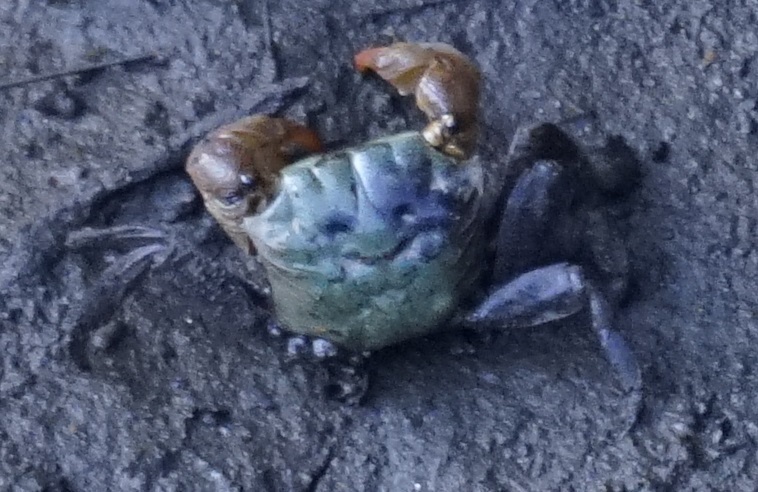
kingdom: Animalia
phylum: Arthropoda
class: Malacostraca
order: Decapoda
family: Sesarmidae
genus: Parasesarma
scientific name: Parasesarma erythodactylum
